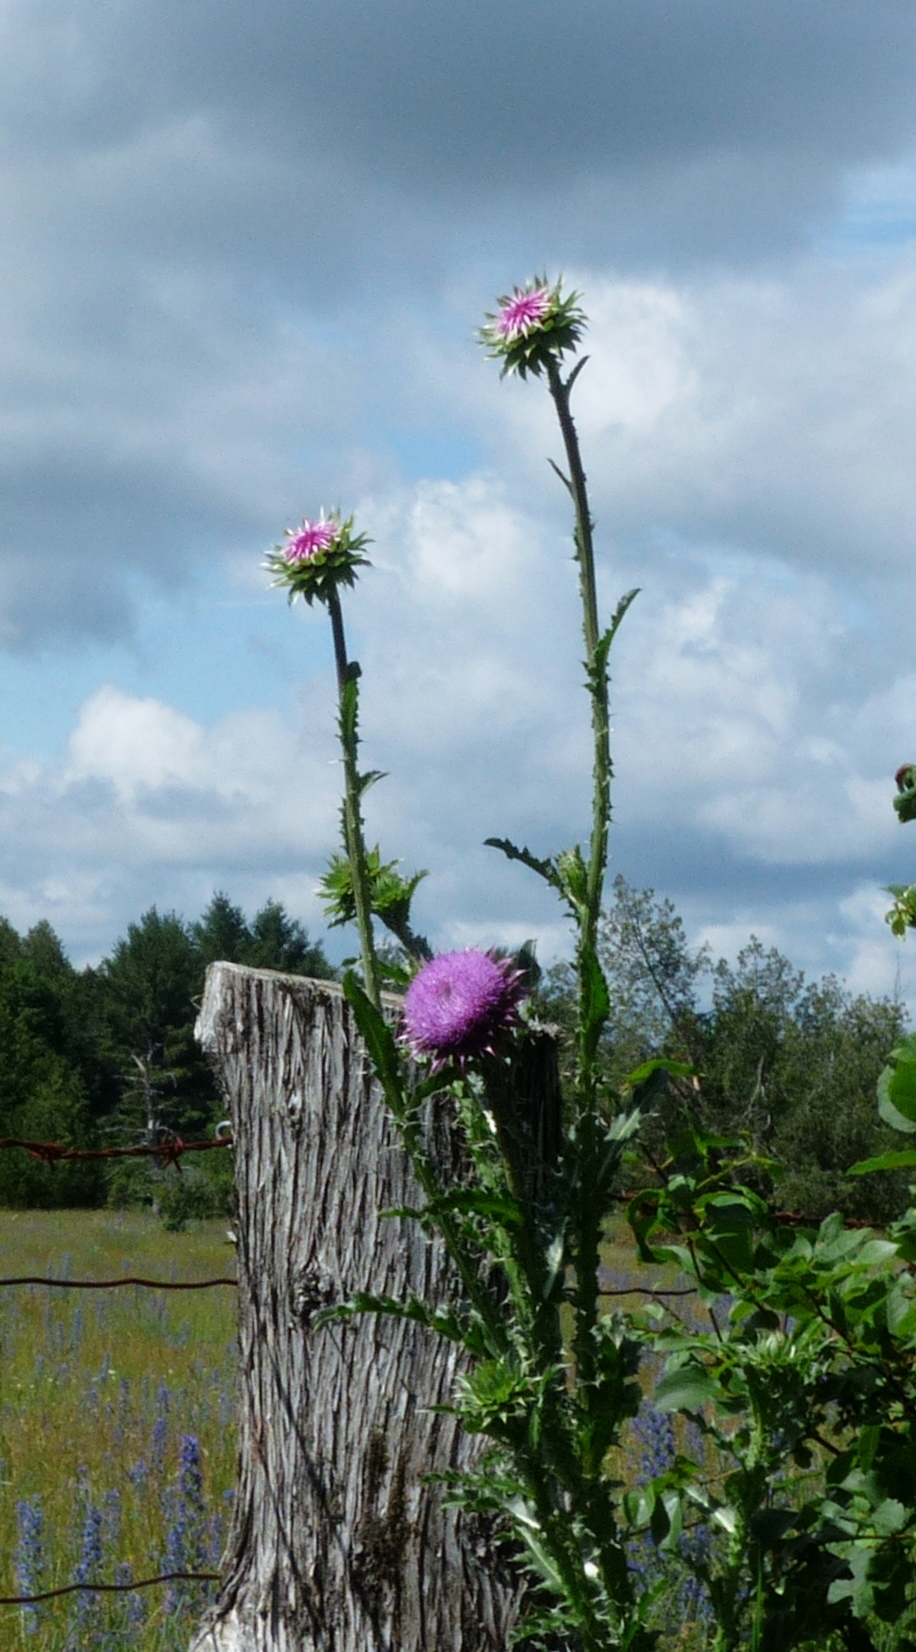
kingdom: Plantae
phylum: Tracheophyta
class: Magnoliopsida
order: Asterales
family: Asteraceae
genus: Carduus
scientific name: Carduus nutans
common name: Musk thistle
